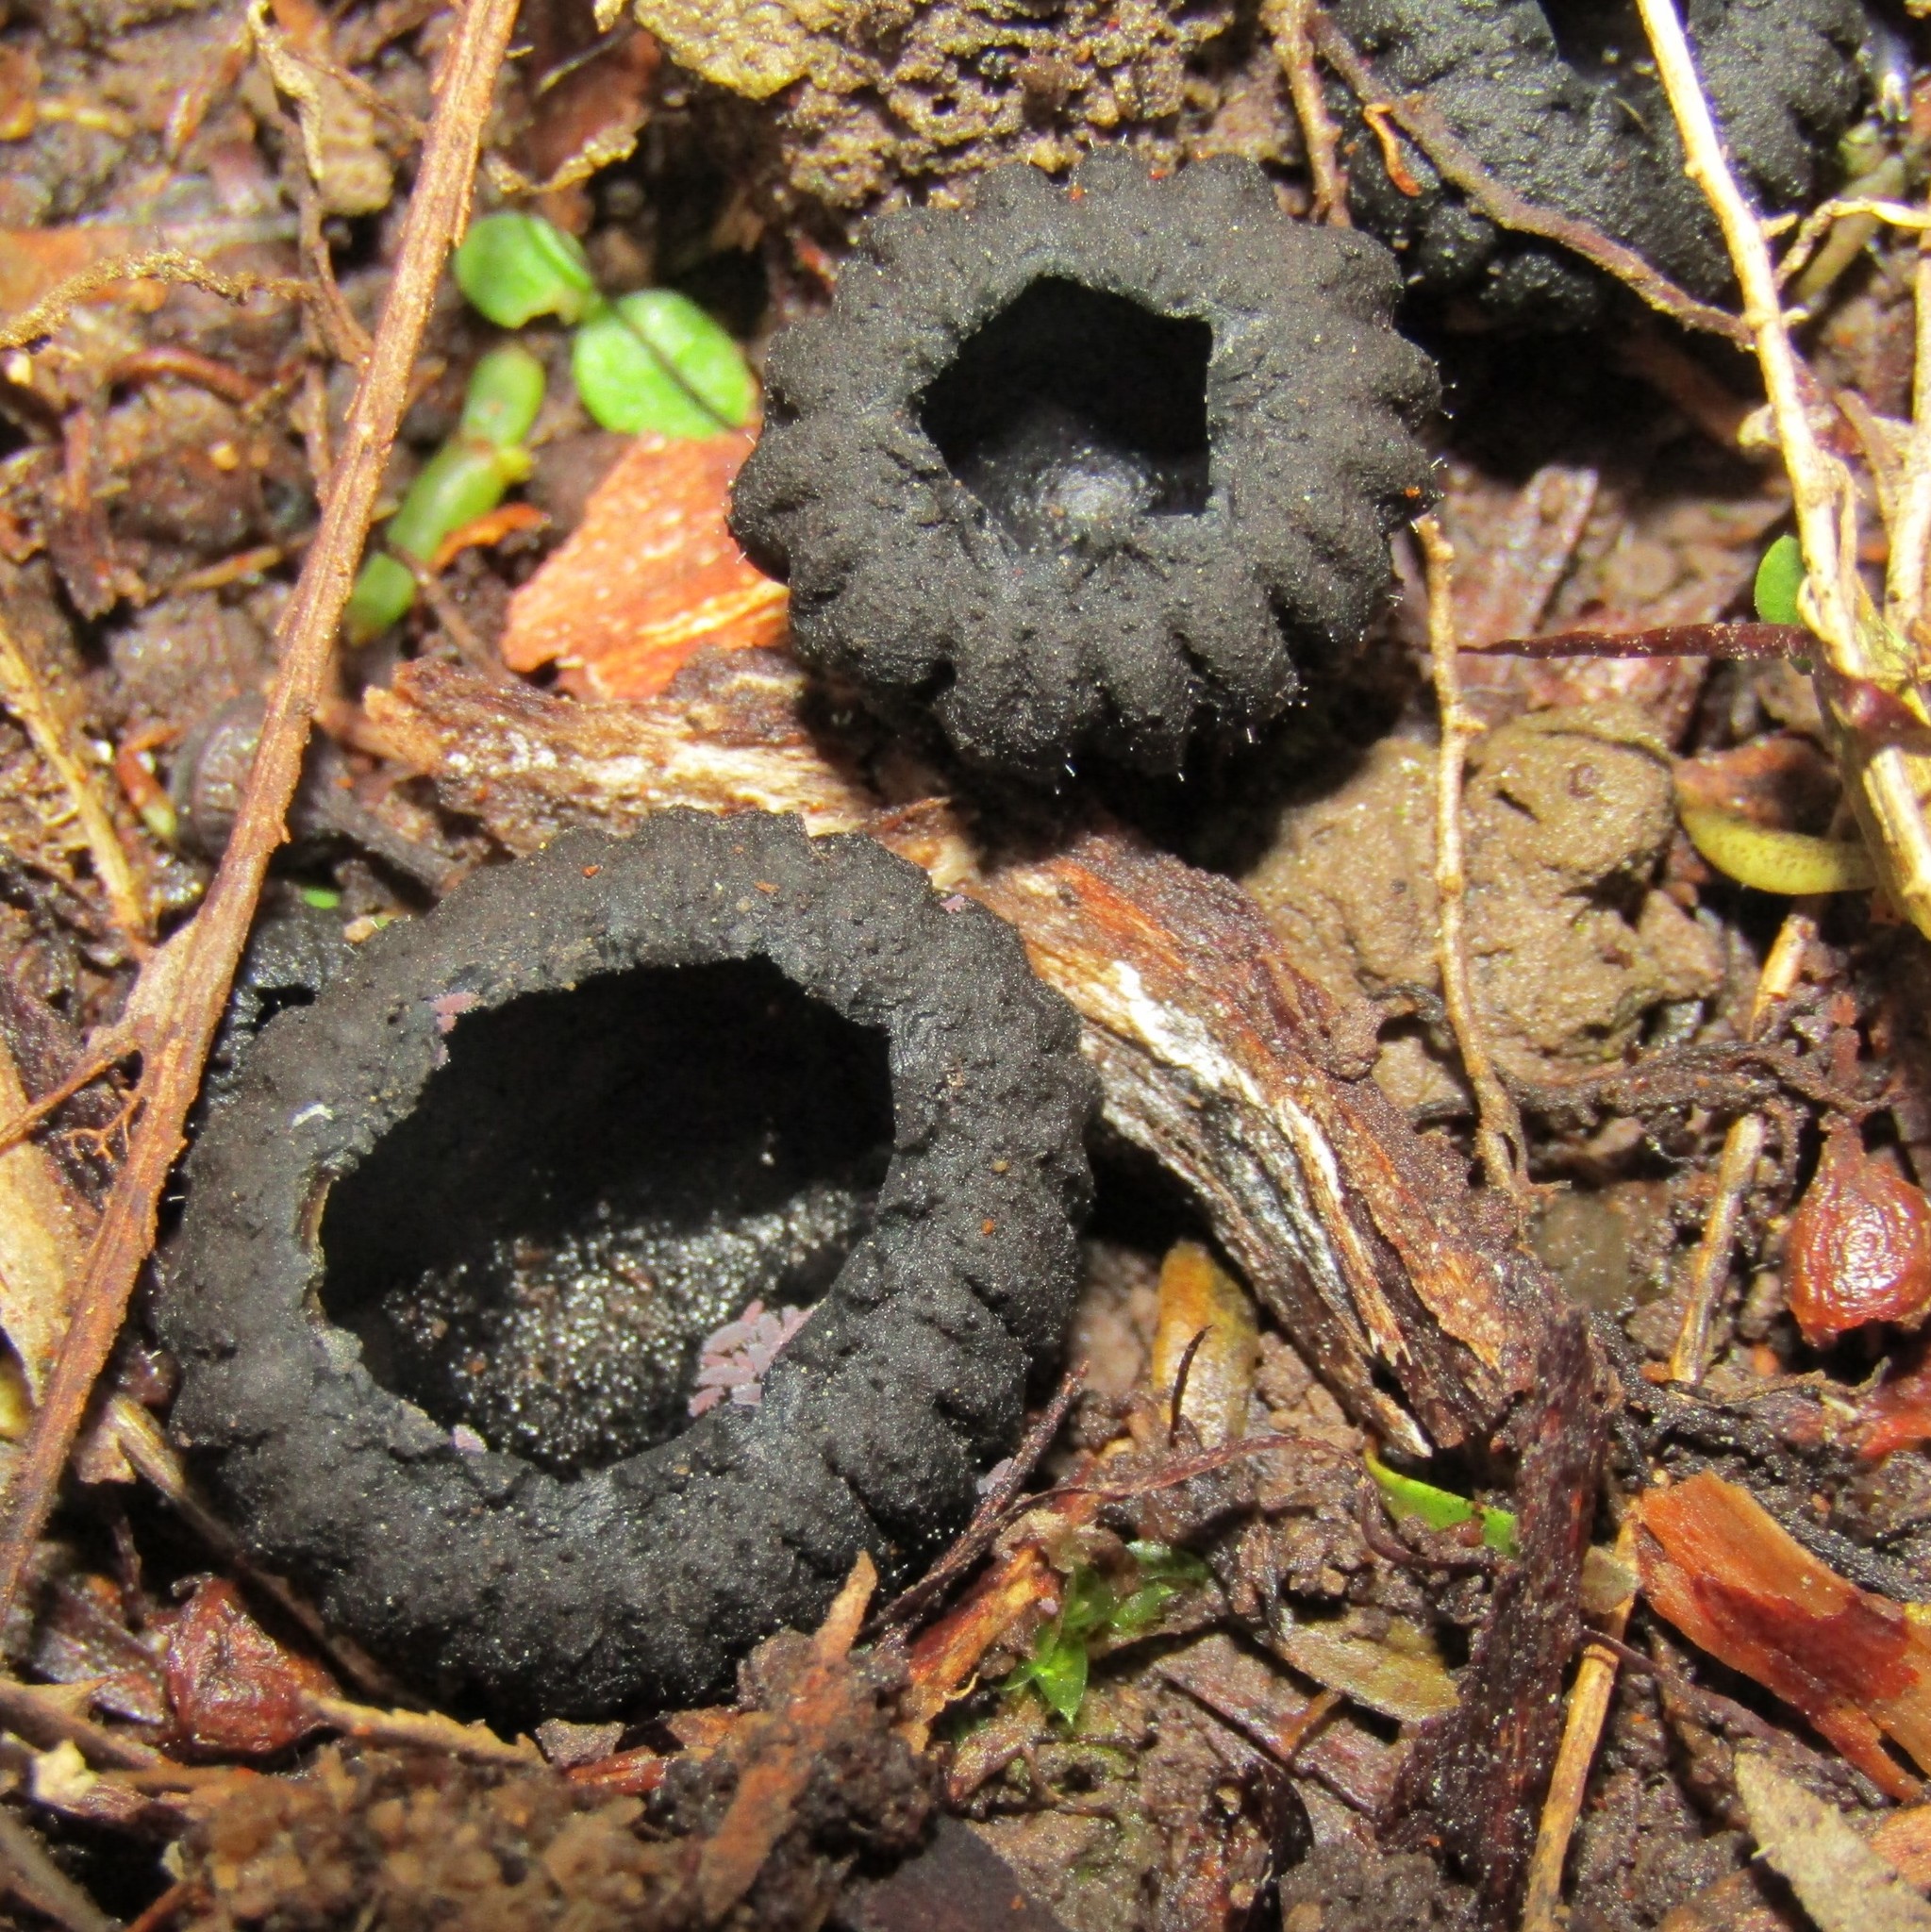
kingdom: Fungi
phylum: Ascomycota
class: Pezizomycetes
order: Pezizales
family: Sarcosomataceae
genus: Plectania
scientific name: Plectania rhytidia
